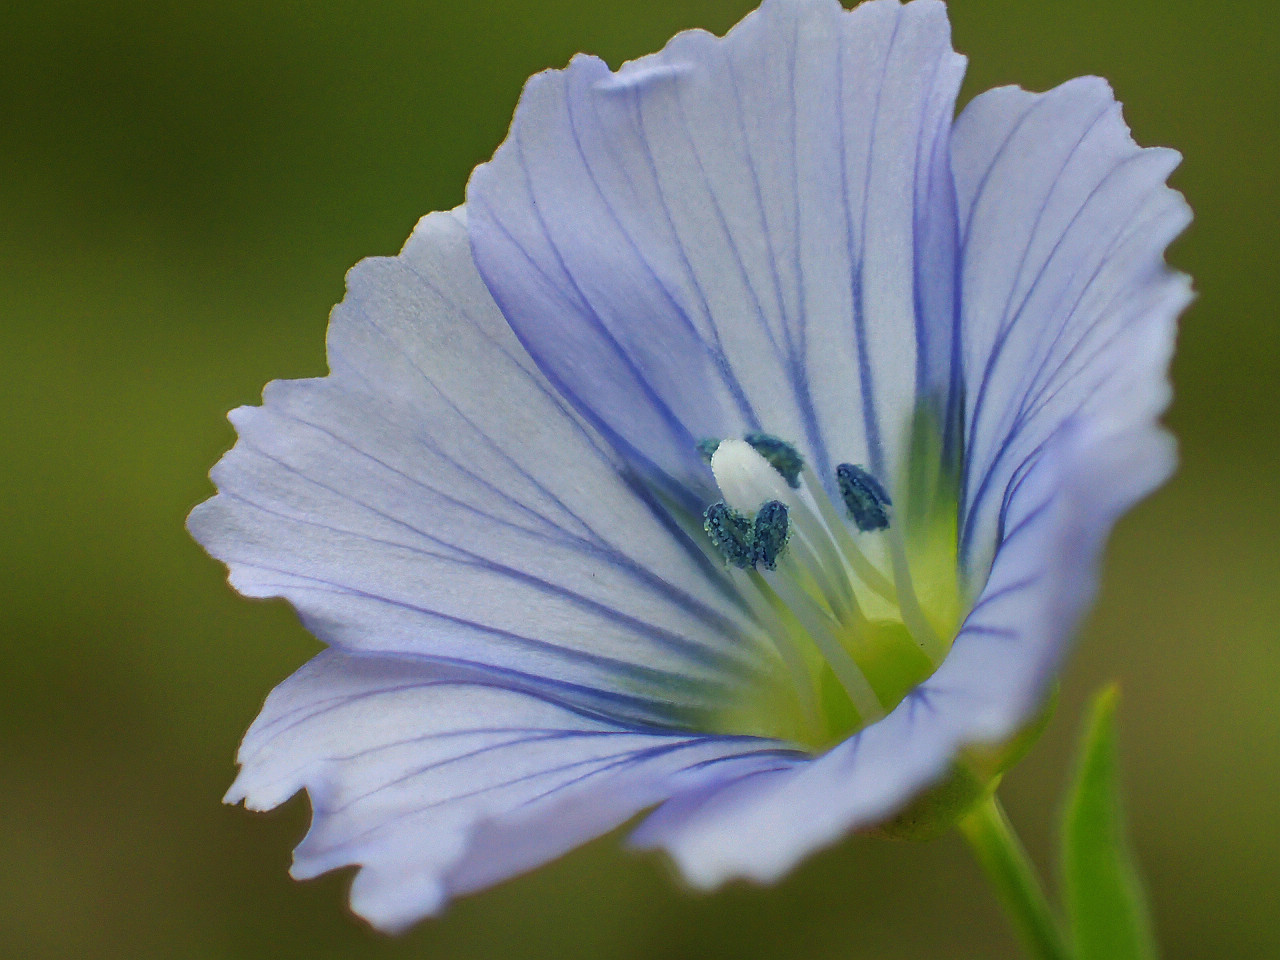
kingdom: Plantae
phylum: Tracheophyta
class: Magnoliopsida
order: Malpighiales
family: Linaceae
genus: Linum
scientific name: Linum usitatissimum
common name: Flax
